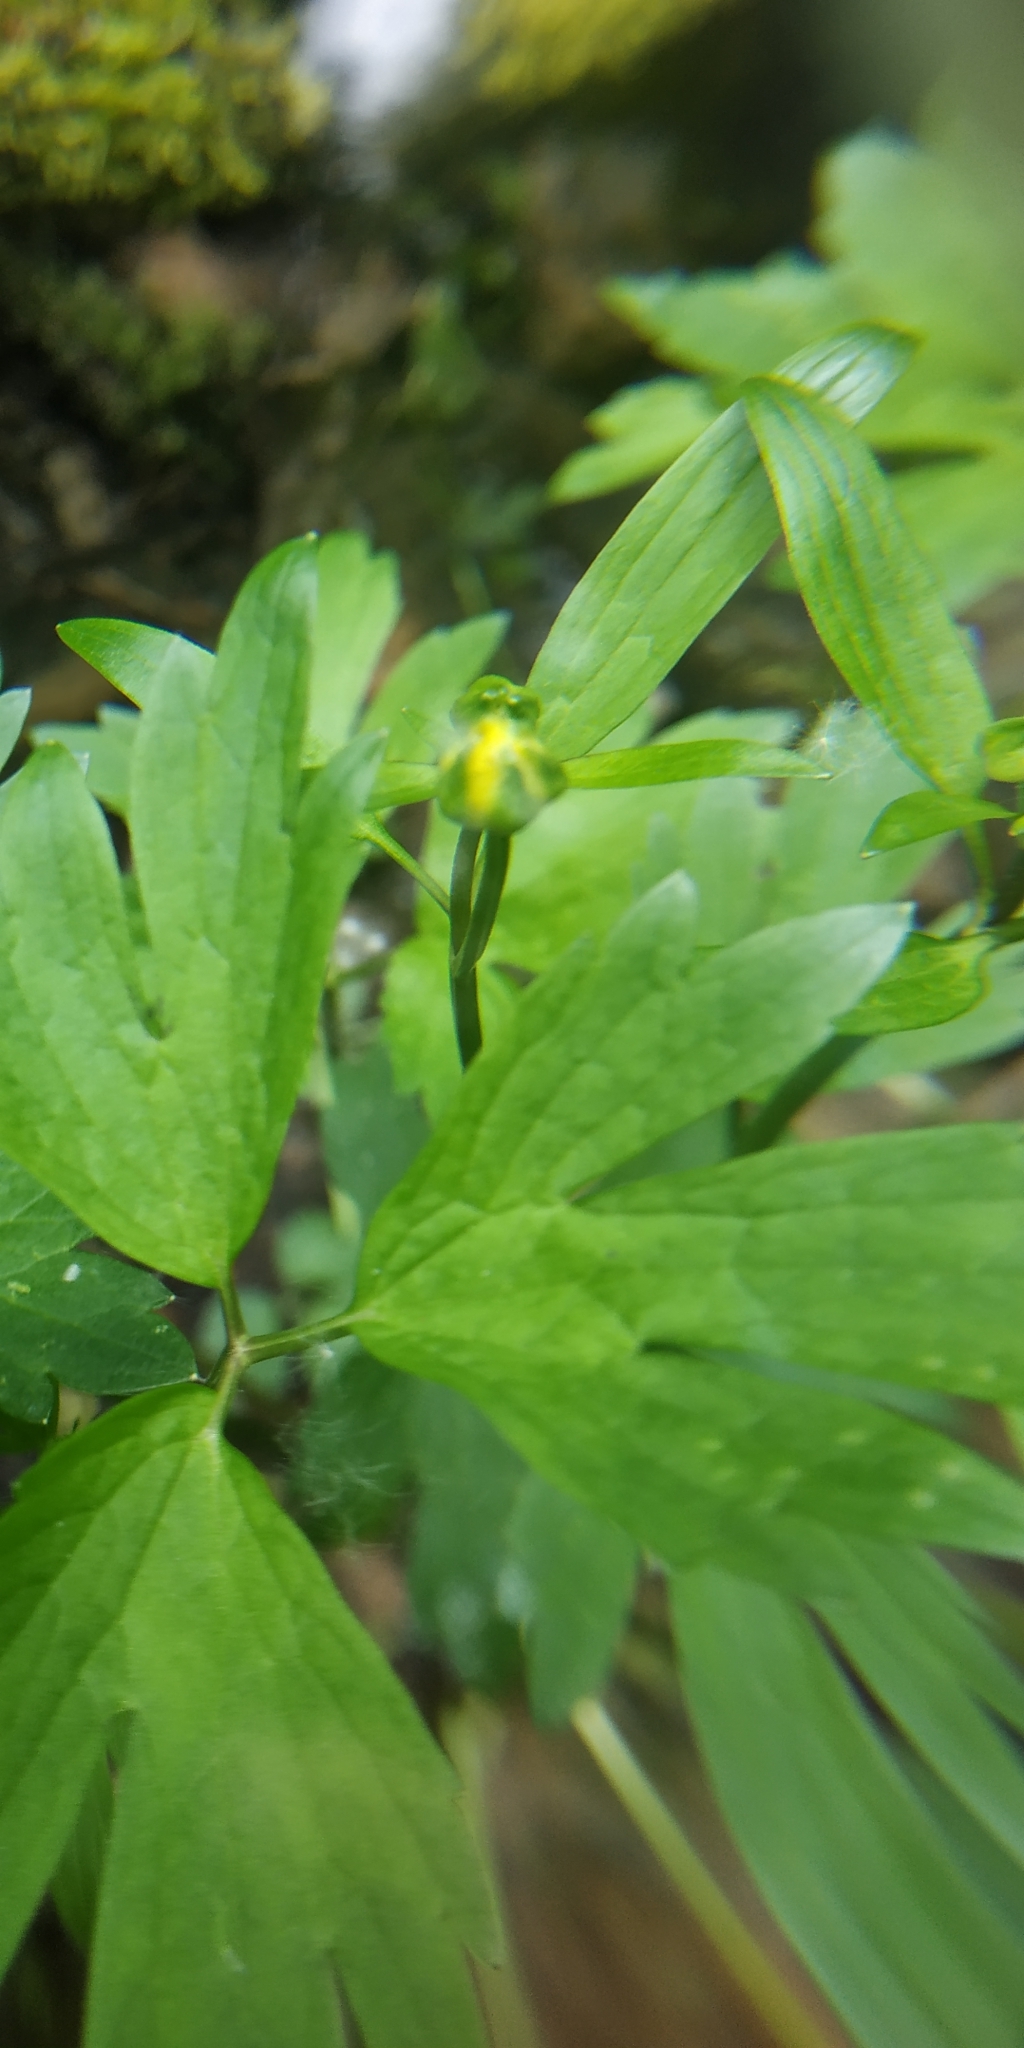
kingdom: Plantae
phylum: Tracheophyta
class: Magnoliopsida
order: Ranunculales
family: Ranunculaceae
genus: Ranunculus
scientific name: Ranunculus repens
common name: Creeping buttercup
